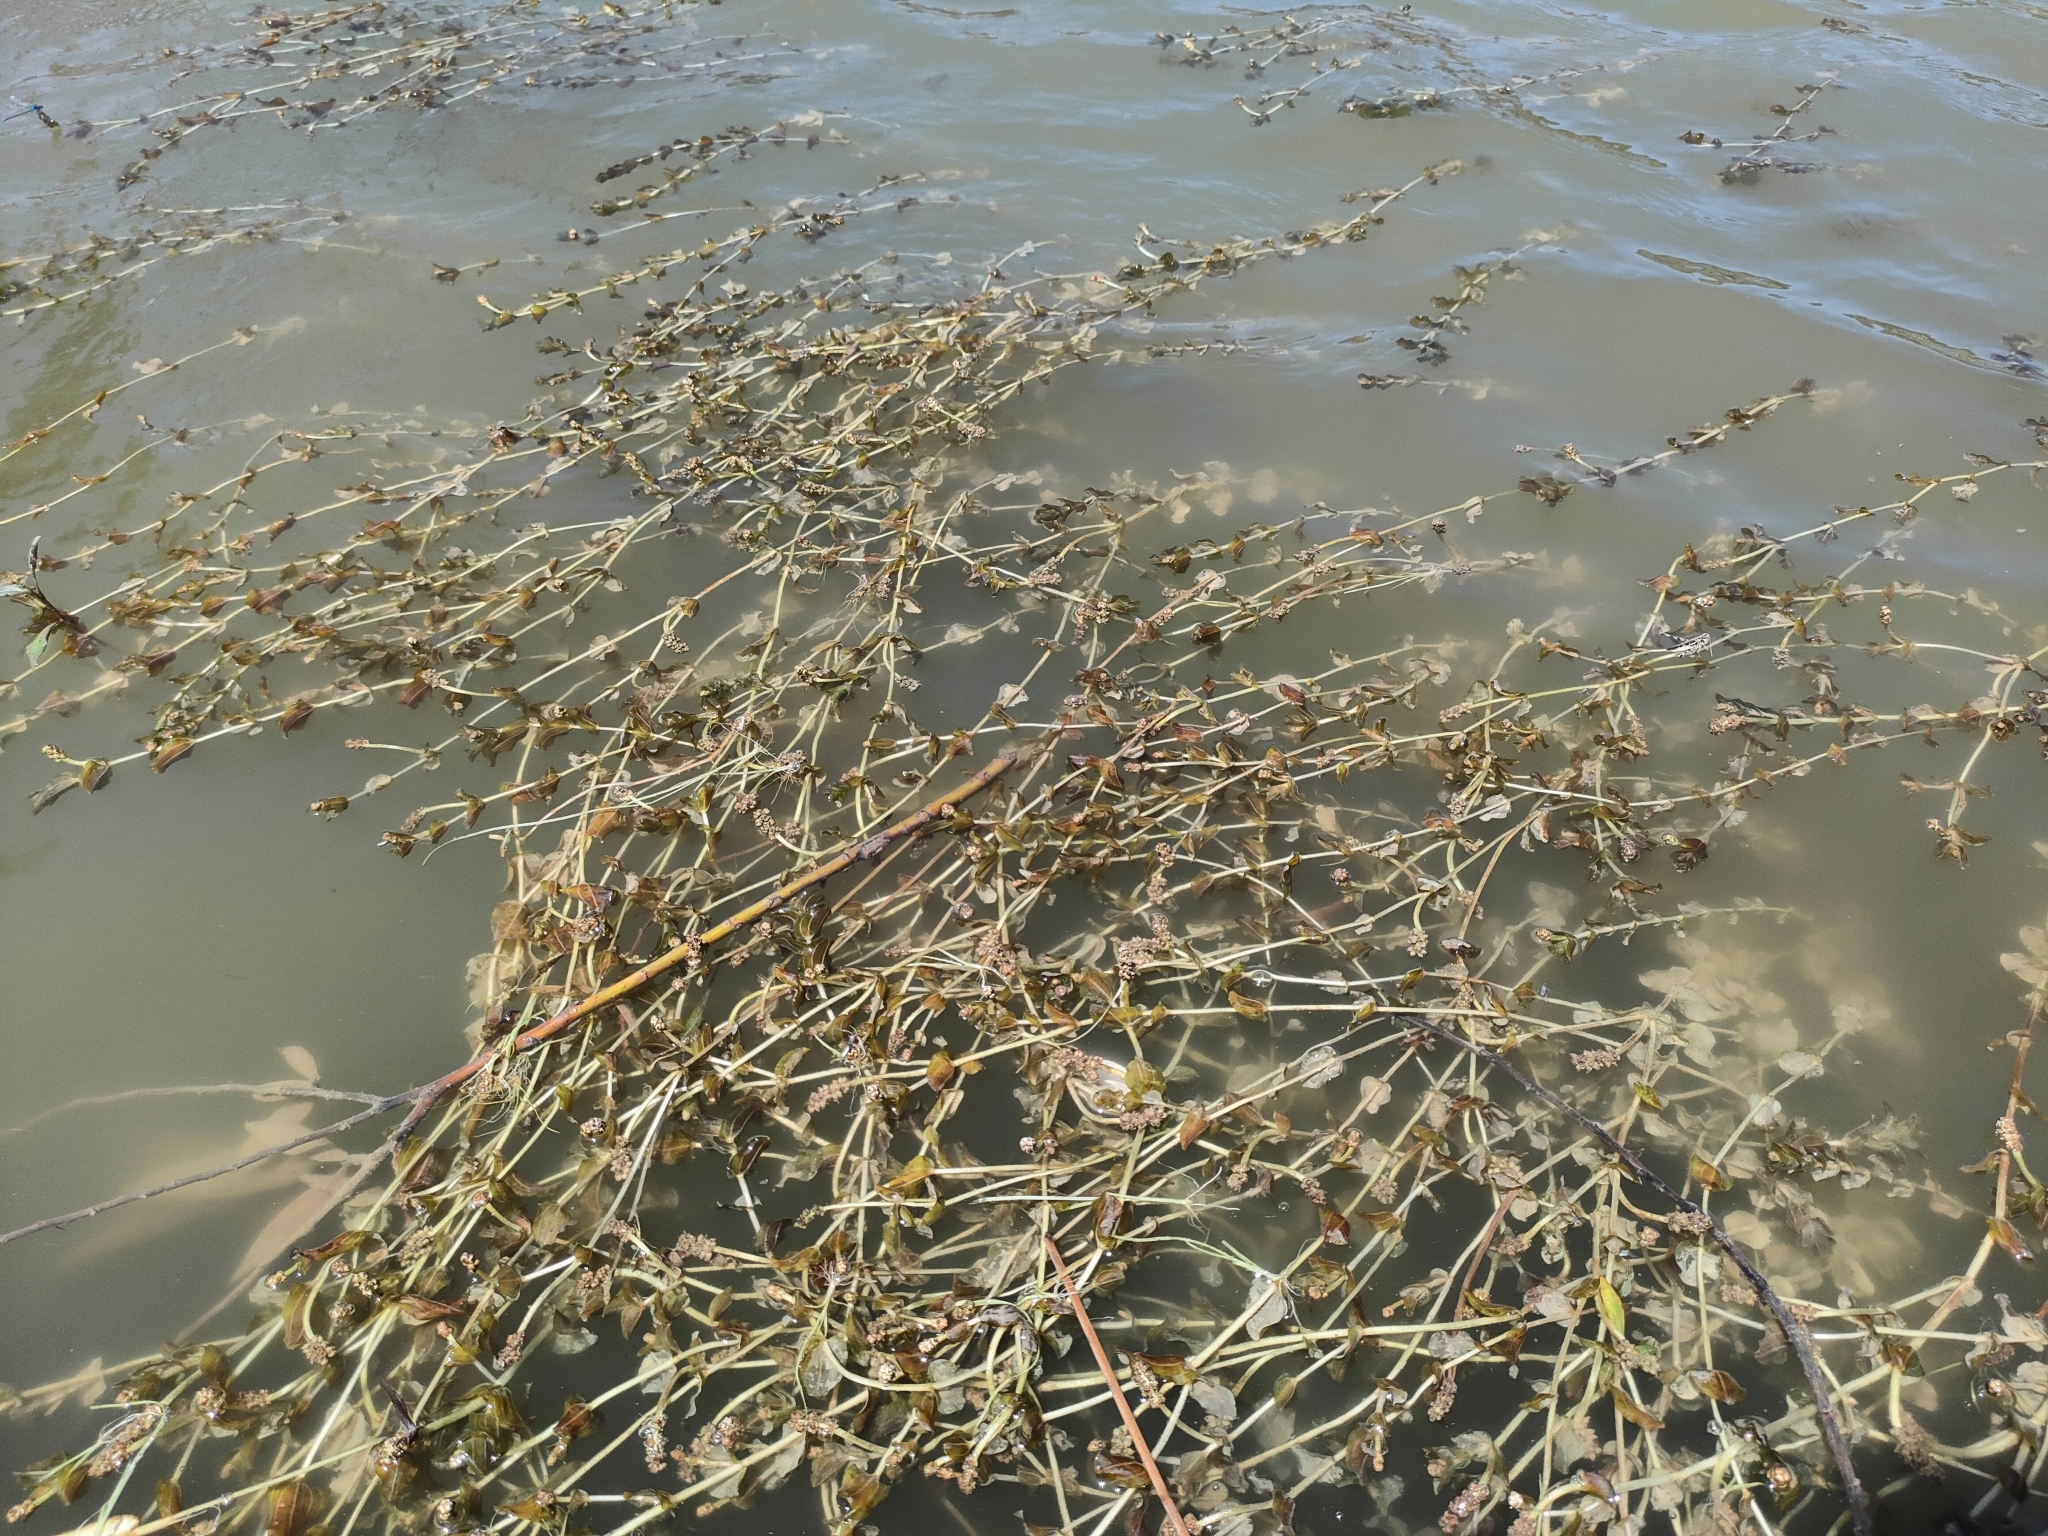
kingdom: Plantae
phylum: Tracheophyta
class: Liliopsida
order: Alismatales
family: Potamogetonaceae
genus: Potamogeton
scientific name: Potamogeton perfoliatus
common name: Perfoliate pondweed
